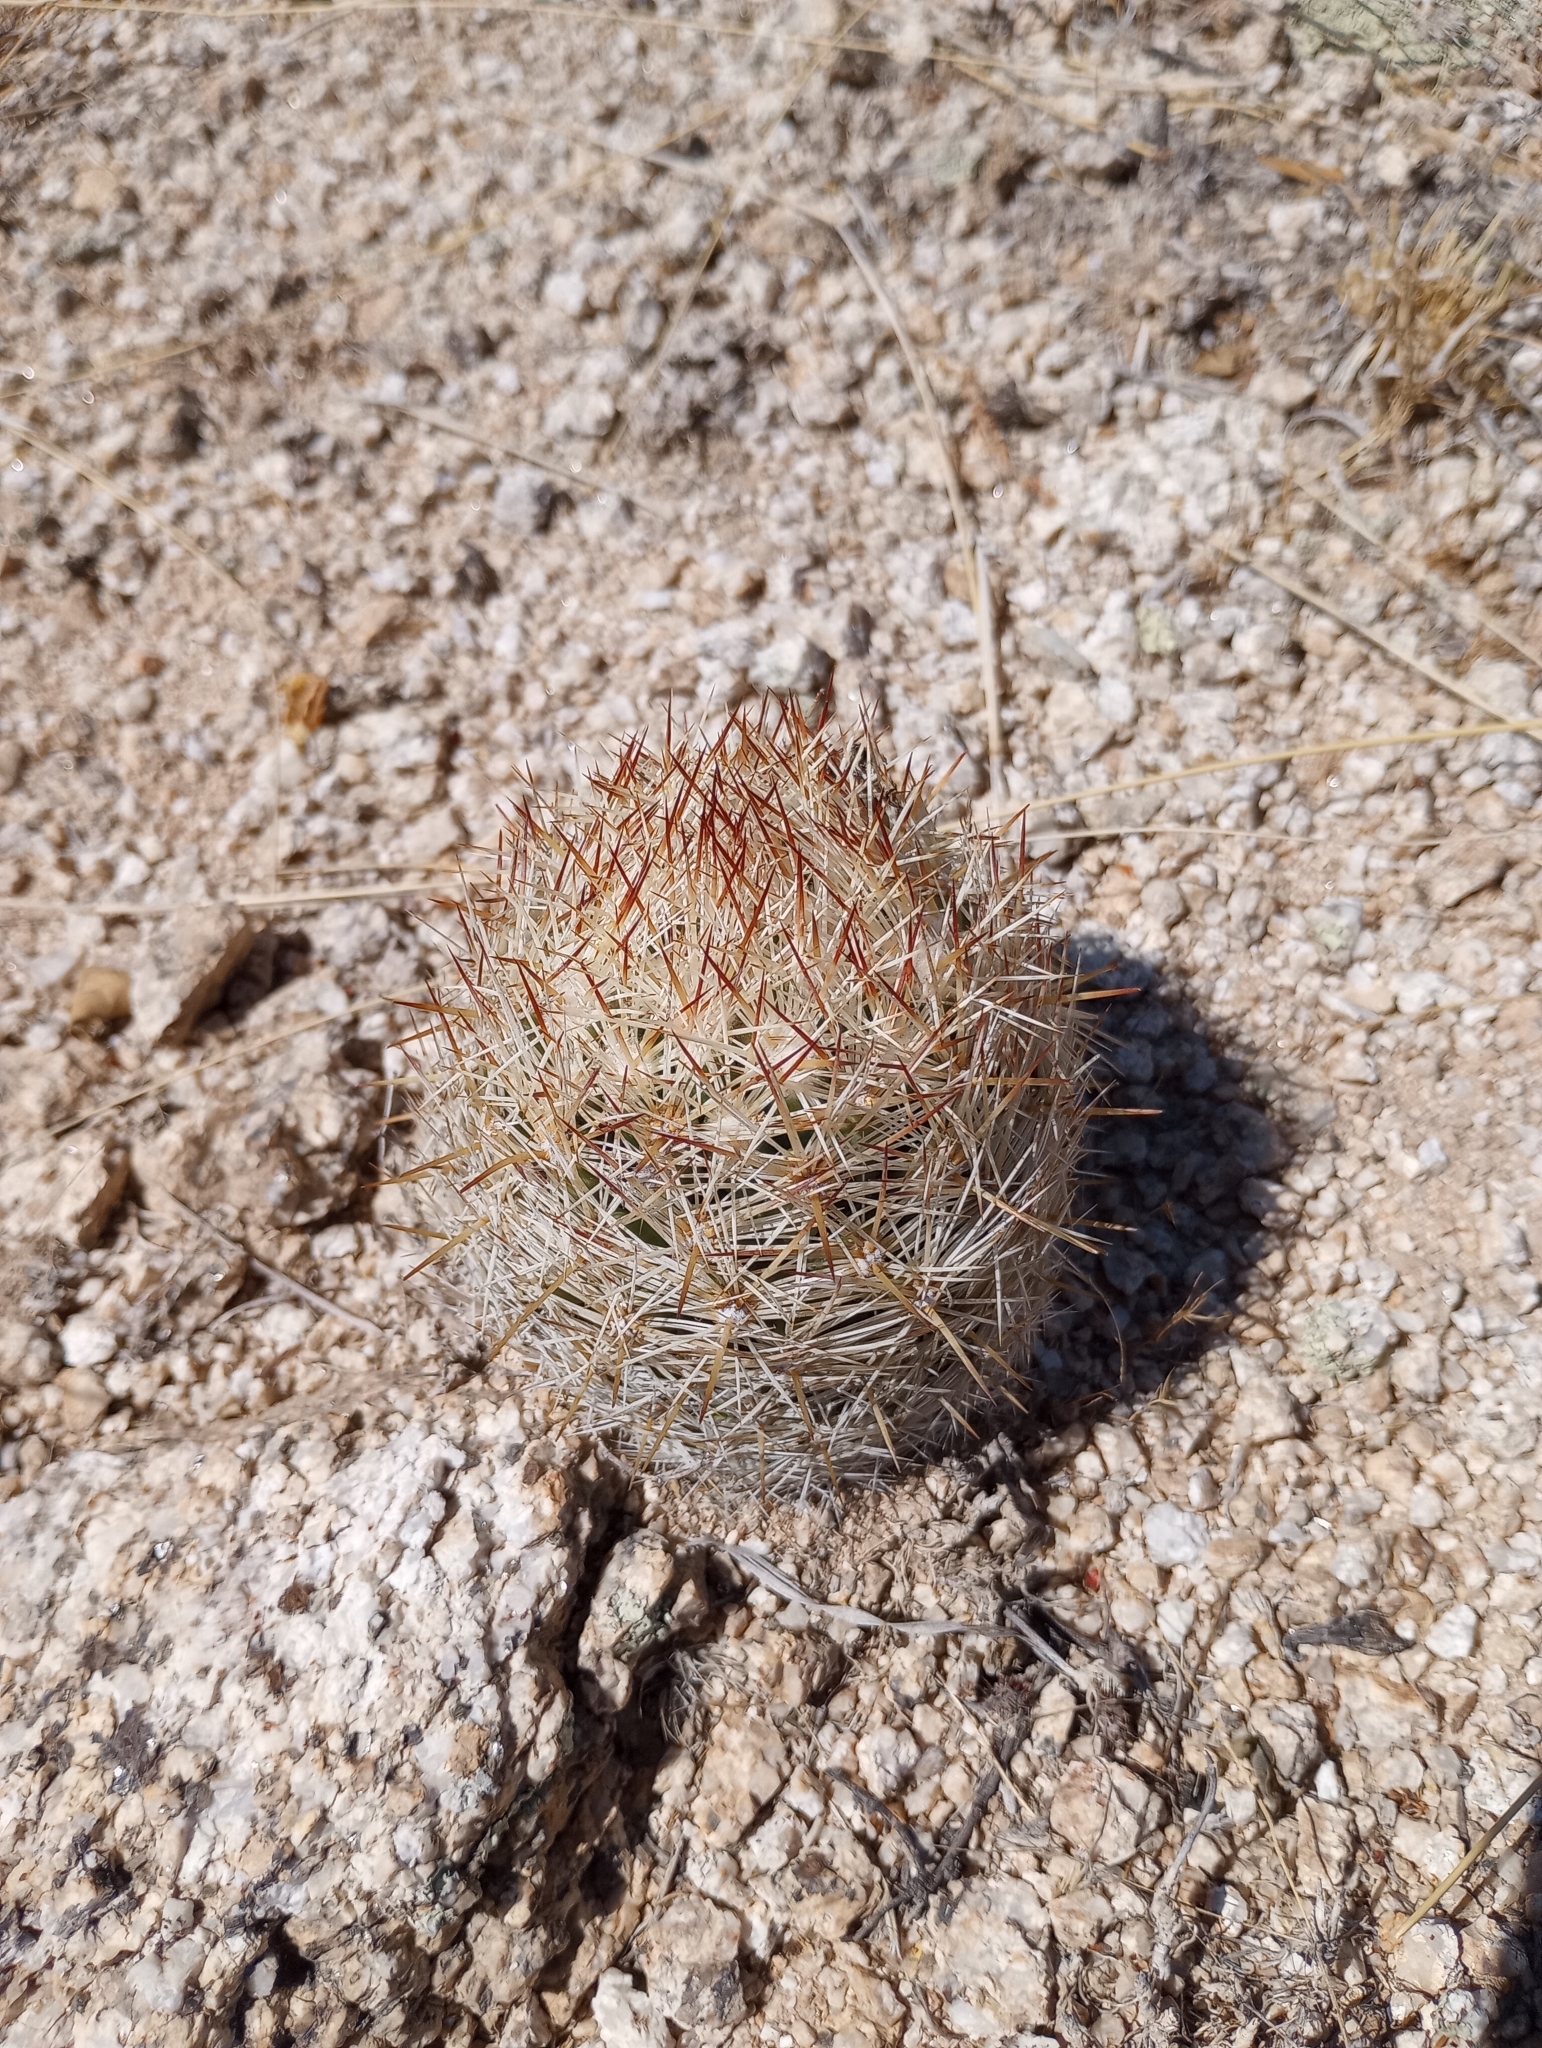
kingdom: Plantae
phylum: Tracheophyta
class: Magnoliopsida
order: Caryophyllales
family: Cactaceae
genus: Pelecyphora
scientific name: Pelecyphora vivipara
